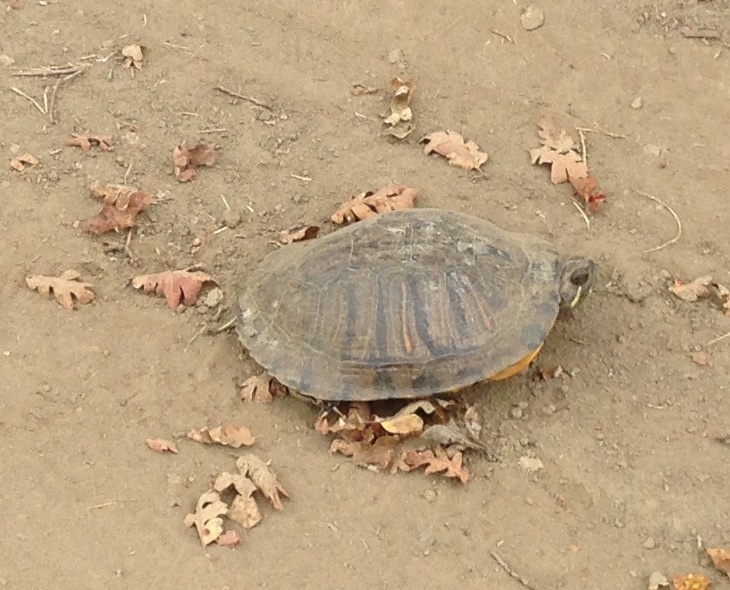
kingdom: Animalia
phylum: Chordata
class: Testudines
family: Emydidae
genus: Trachemys
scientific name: Trachemys scripta
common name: Slider
